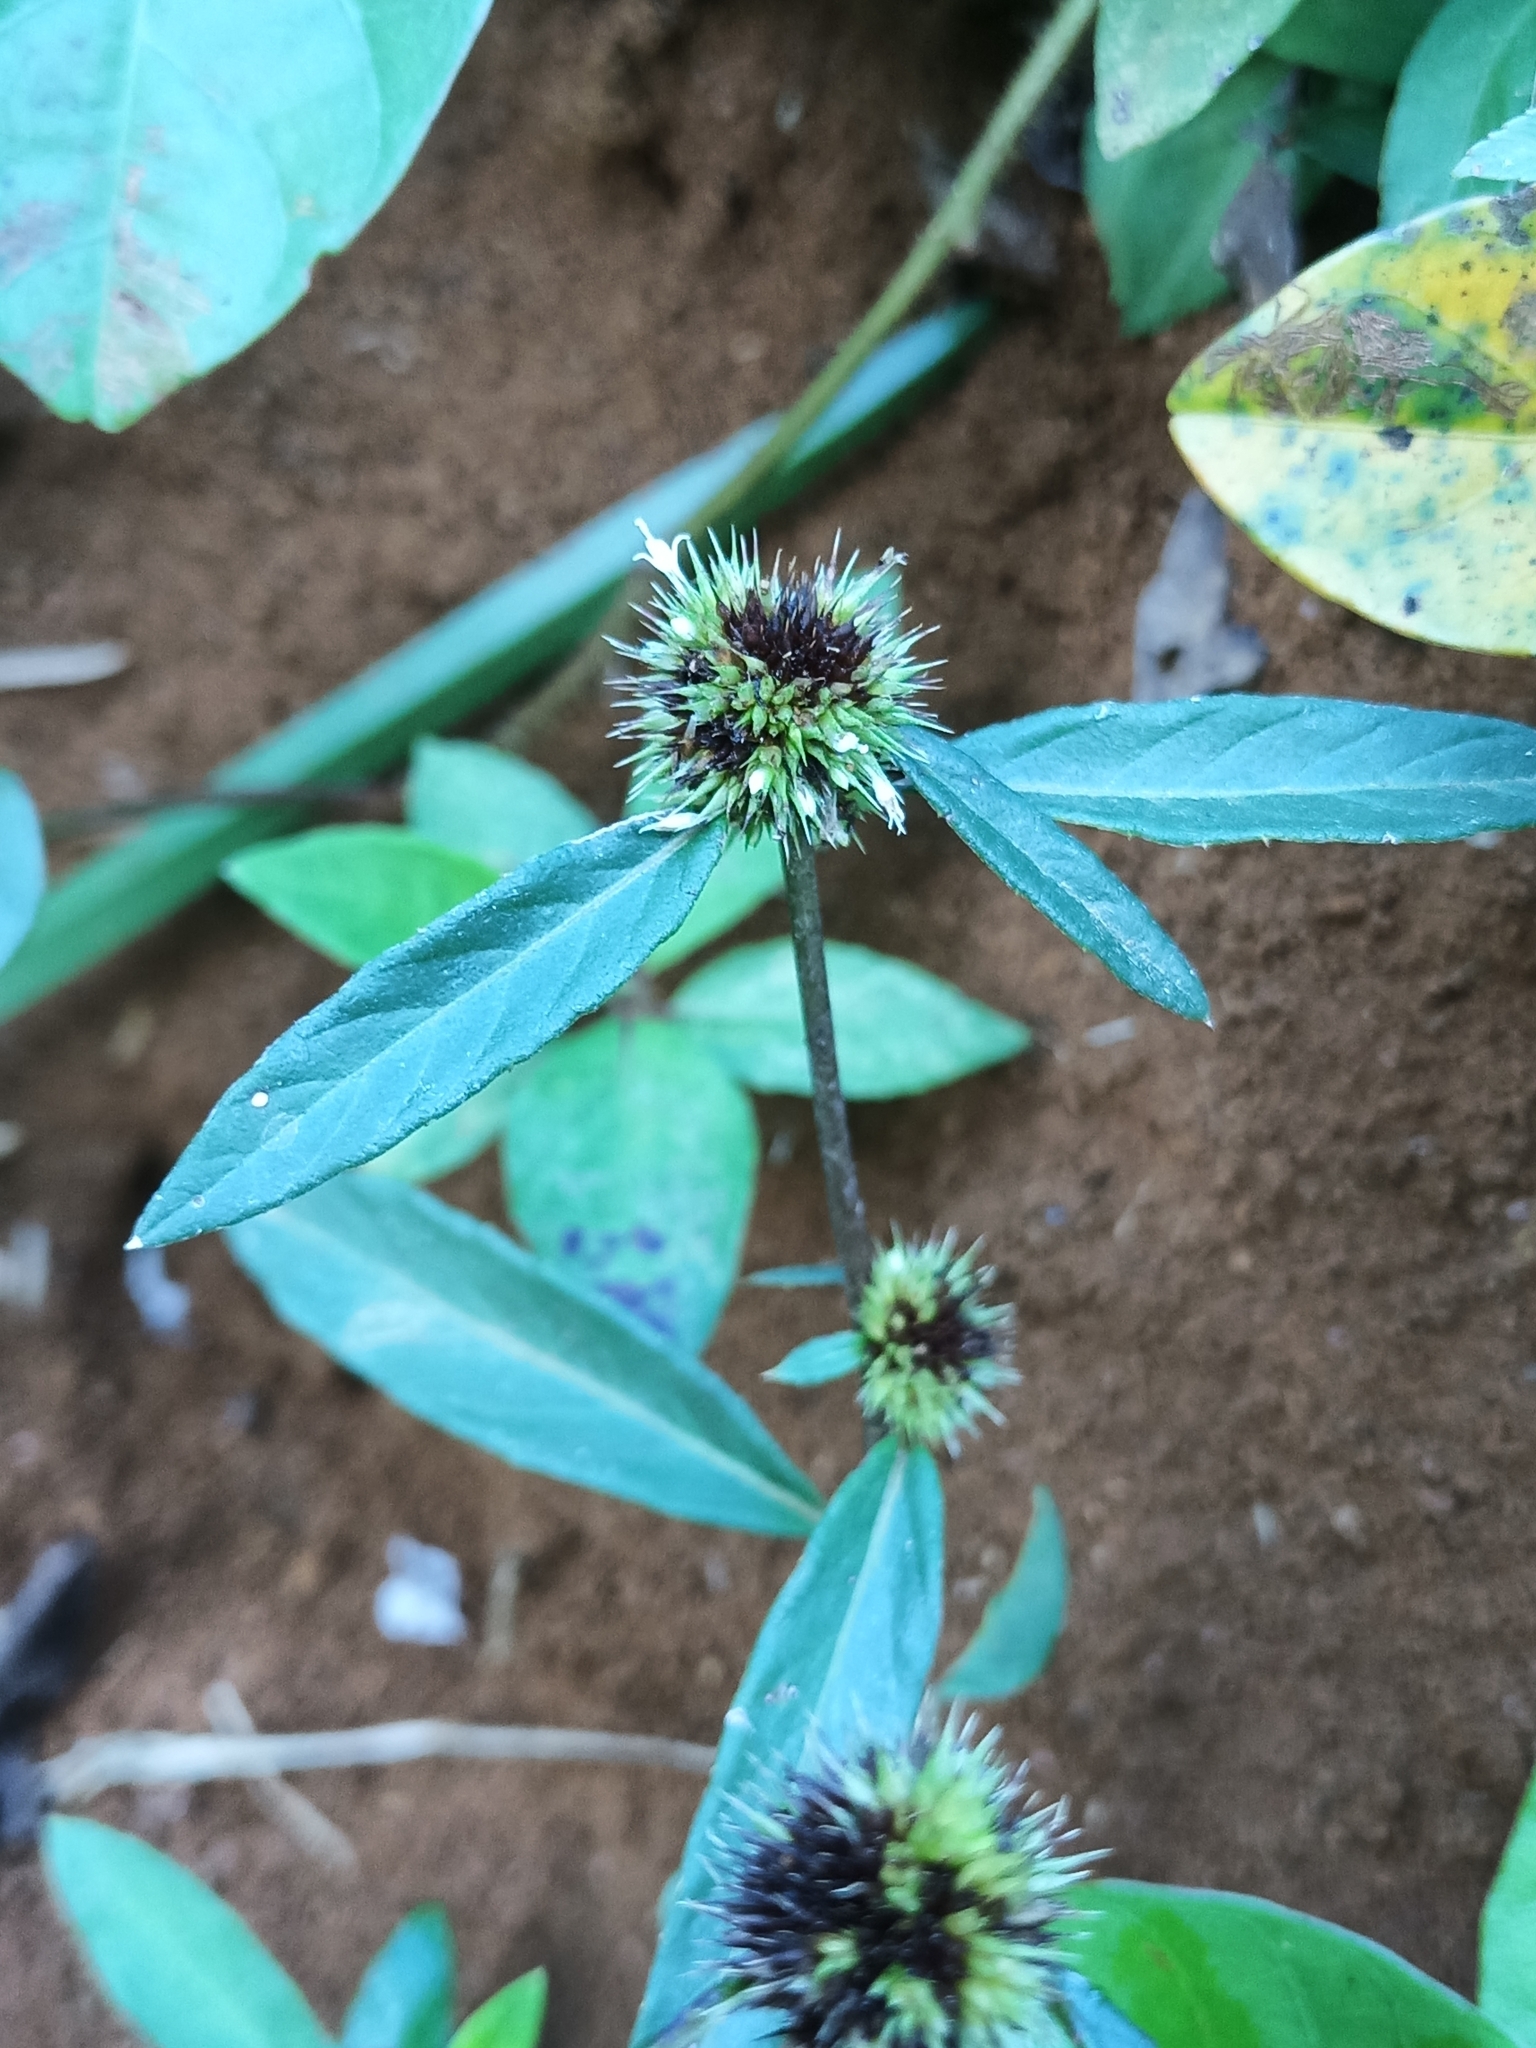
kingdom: Plantae
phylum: Tracheophyta
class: Magnoliopsida
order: Asterales
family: Asteraceae
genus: Rolandra
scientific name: Rolandra fruticosa
